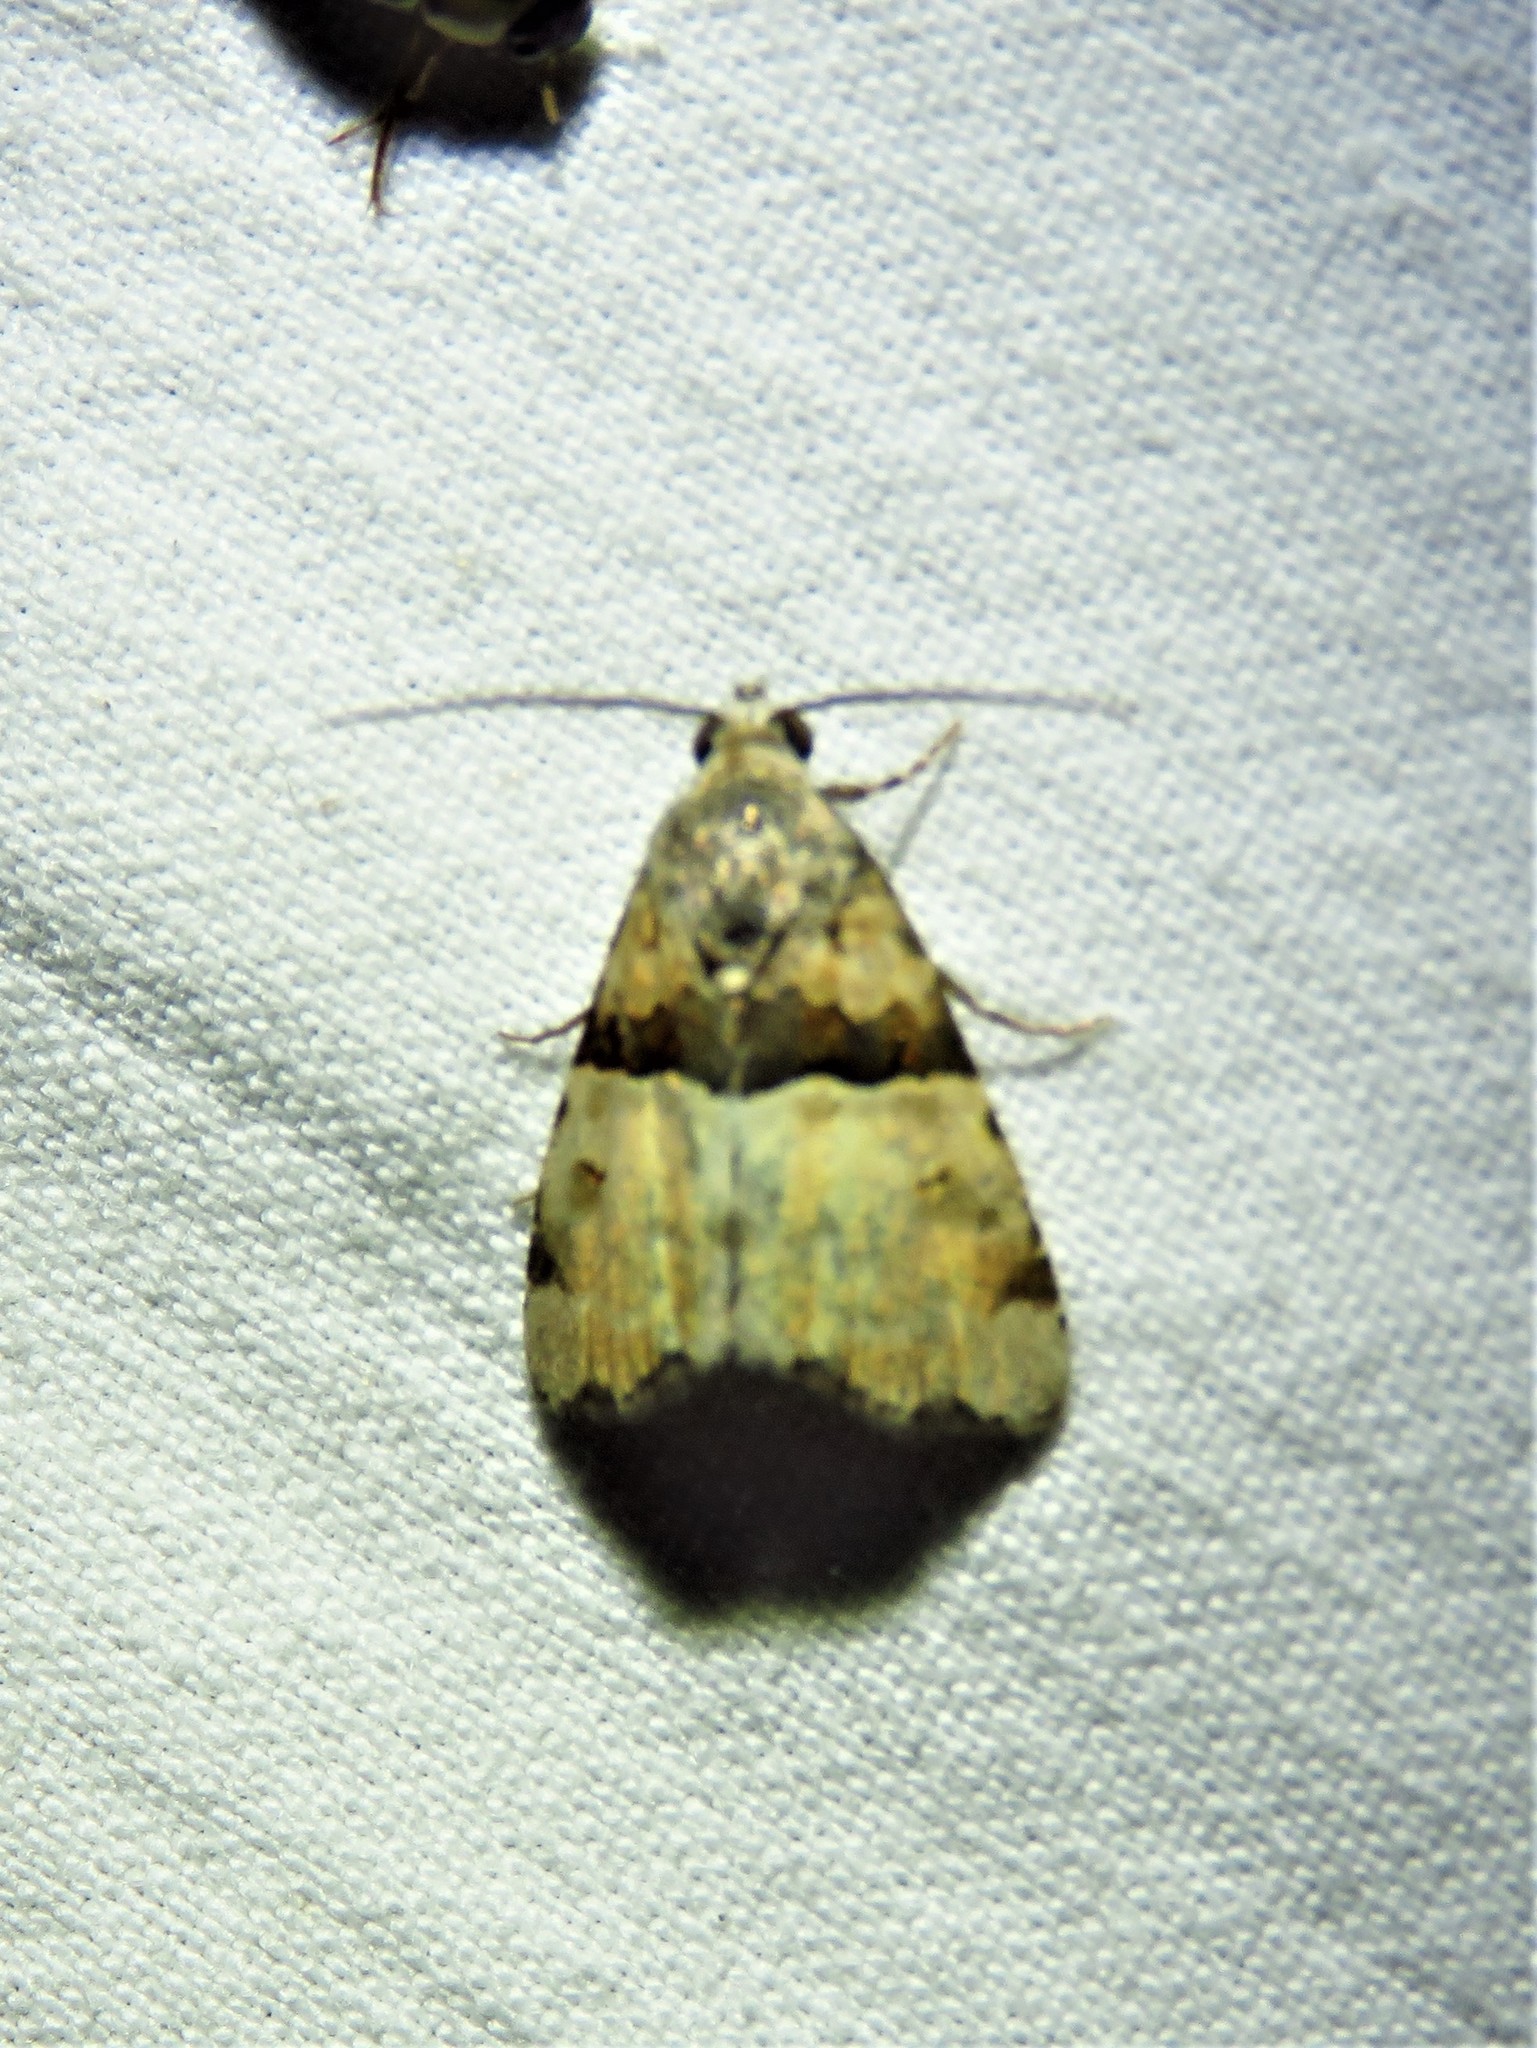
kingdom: Animalia
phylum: Arthropoda
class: Insecta
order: Lepidoptera
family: Noctuidae
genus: Cobubatha
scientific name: Cobubatha dividua
